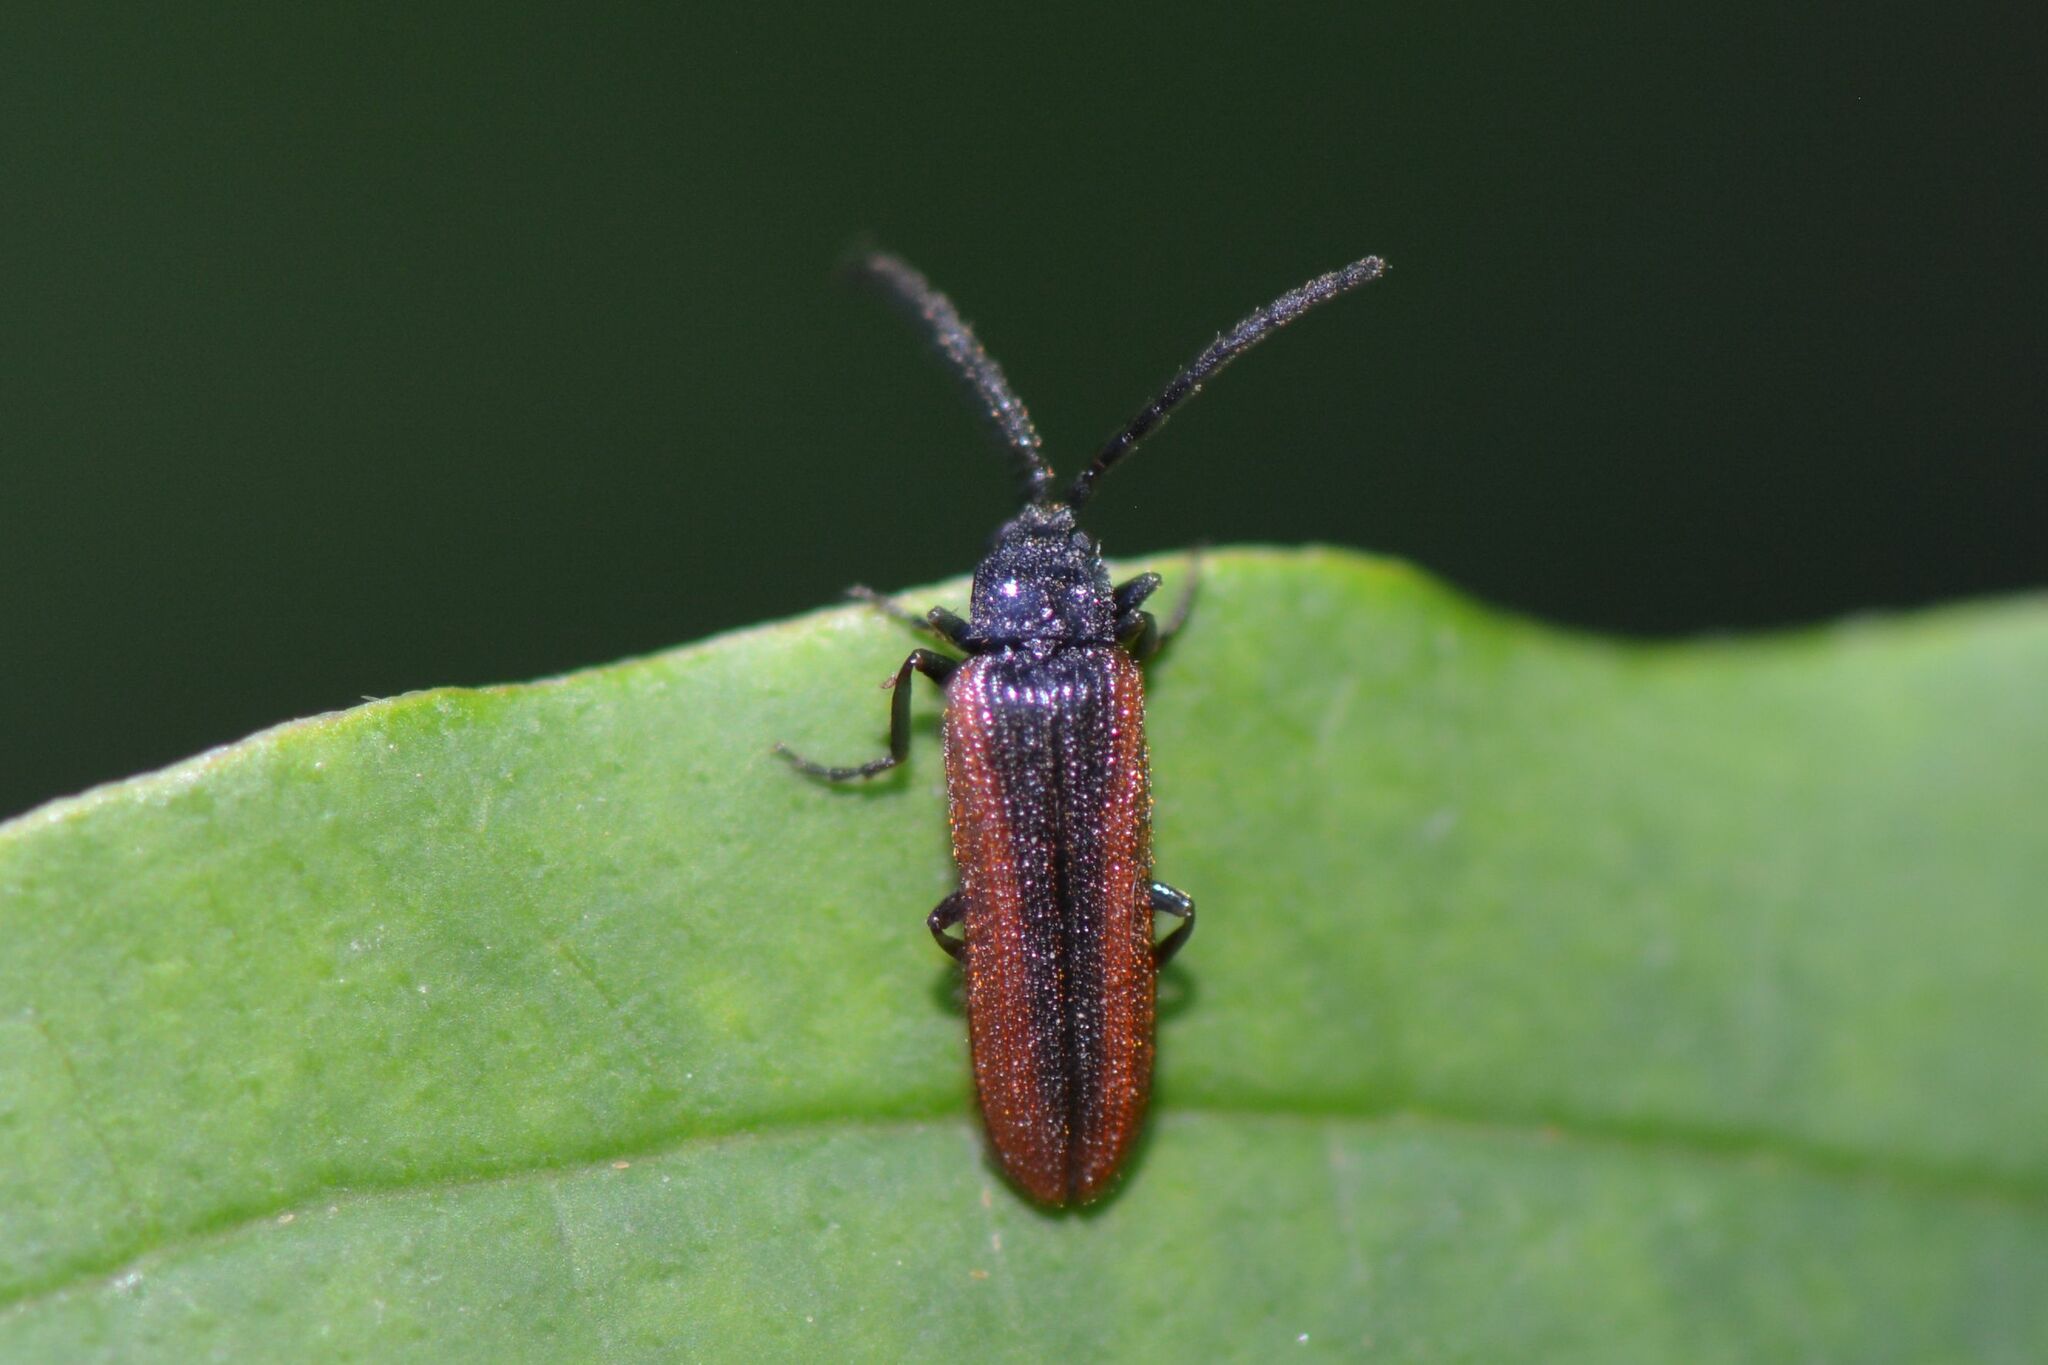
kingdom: Animalia
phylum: Arthropoda
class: Insecta
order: Coleoptera
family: Omalisidae
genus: Omalisus
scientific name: Omalisus fontisbellaquei
